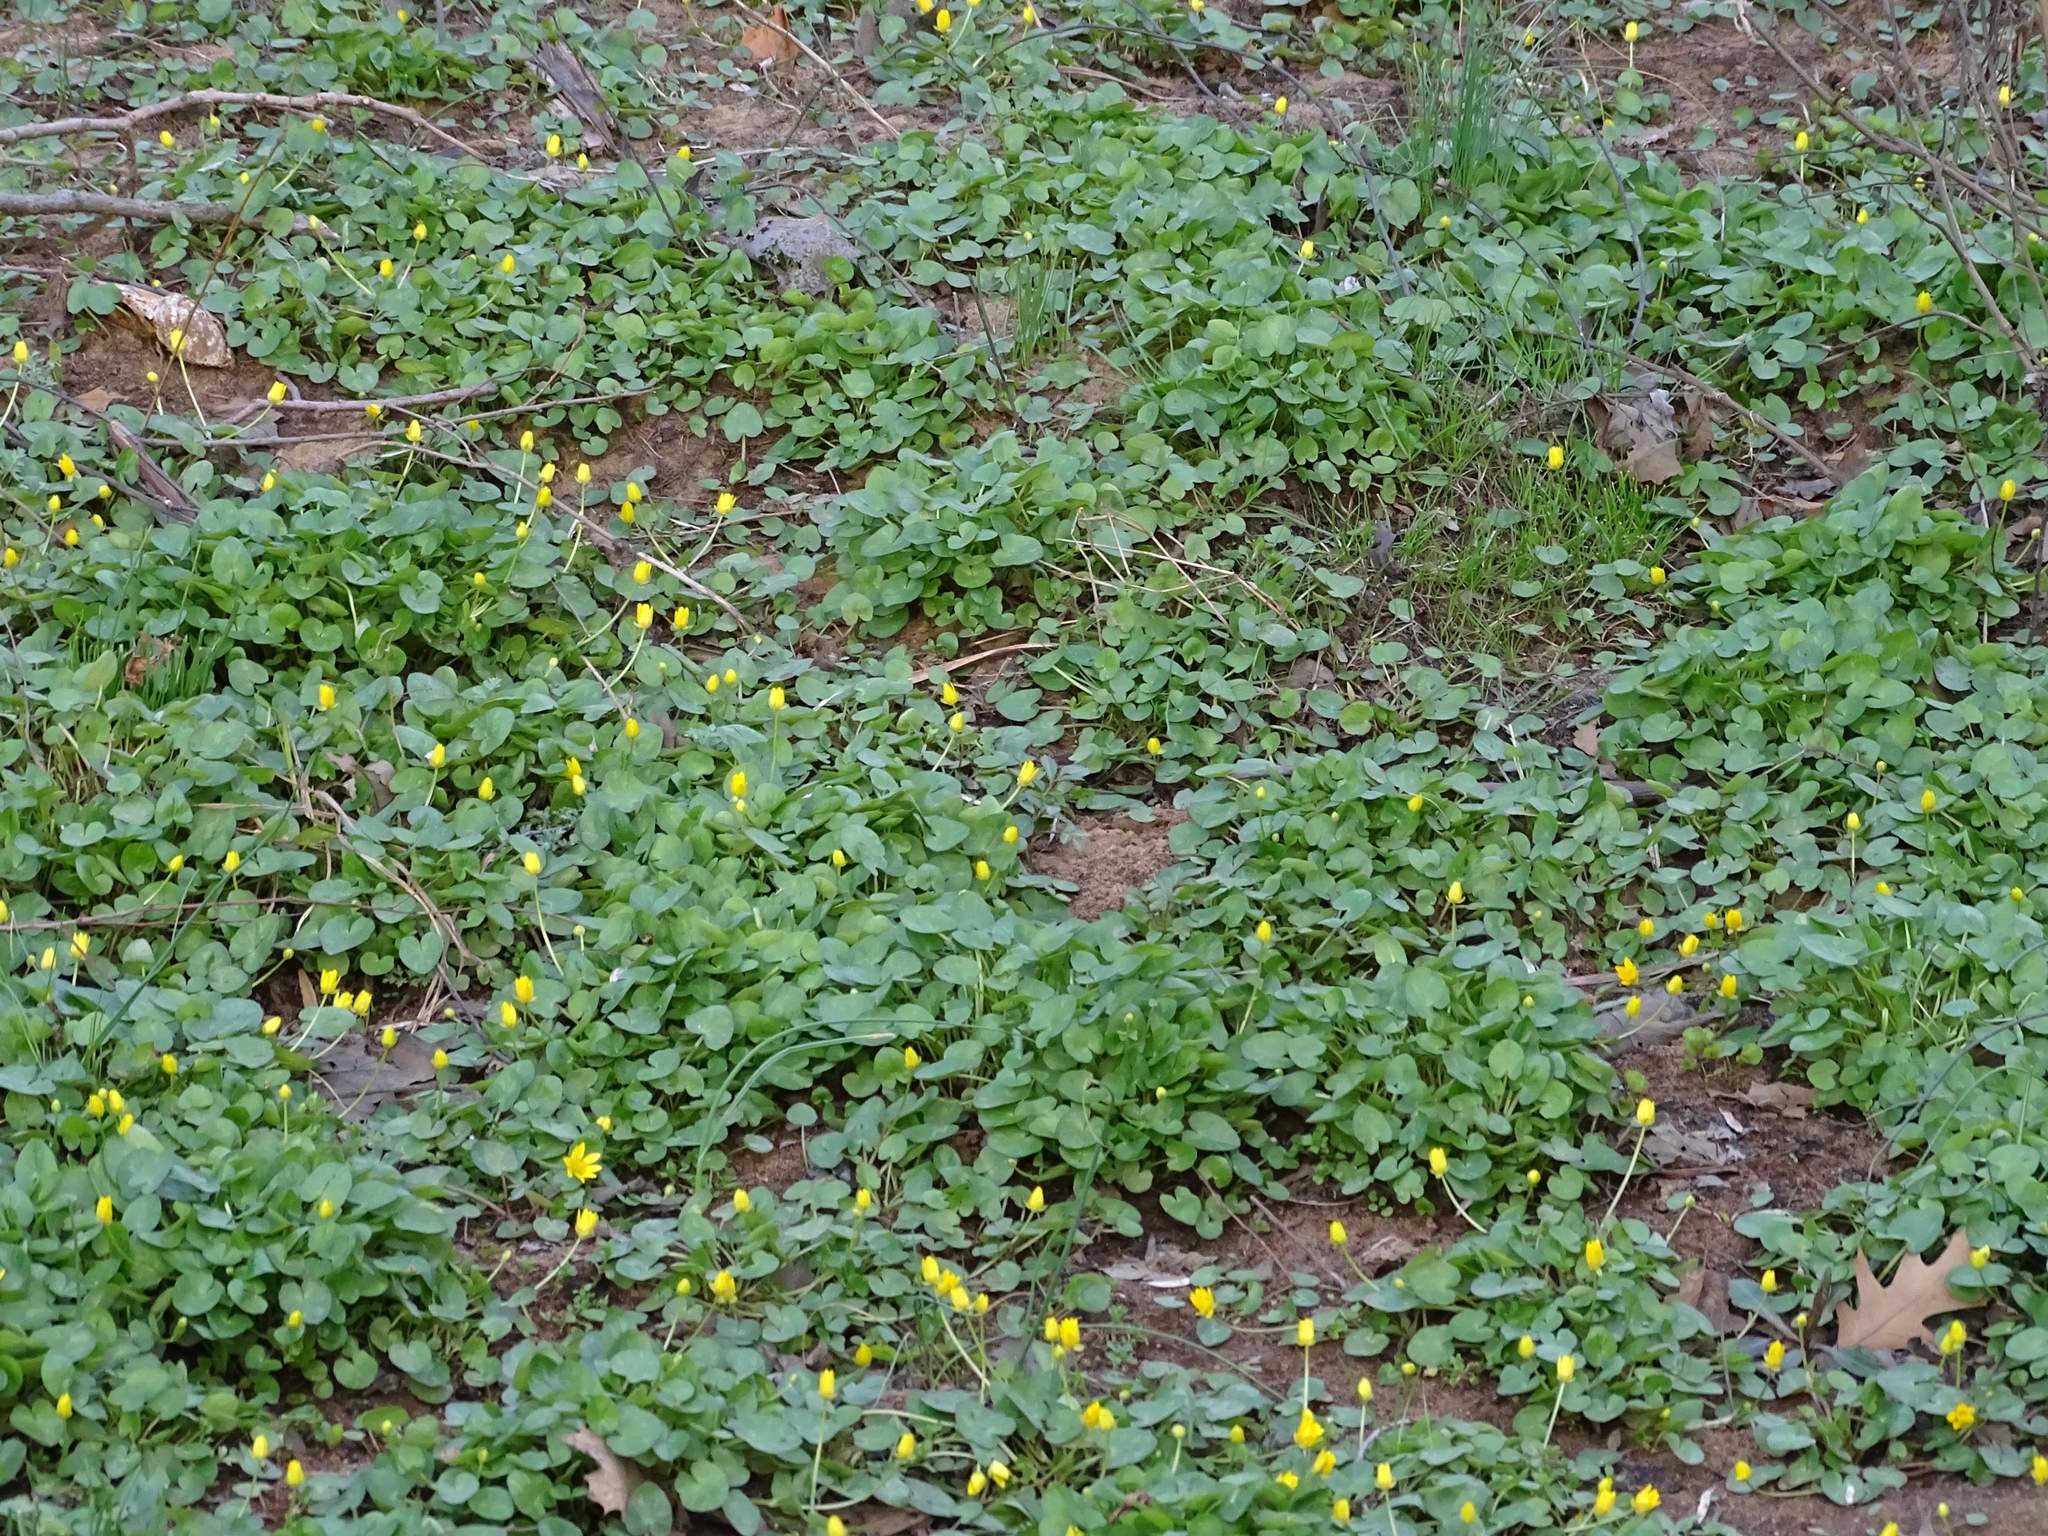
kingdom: Plantae
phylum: Tracheophyta
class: Magnoliopsida
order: Ranunculales
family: Ranunculaceae
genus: Ficaria
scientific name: Ficaria verna
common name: Lesser celandine
